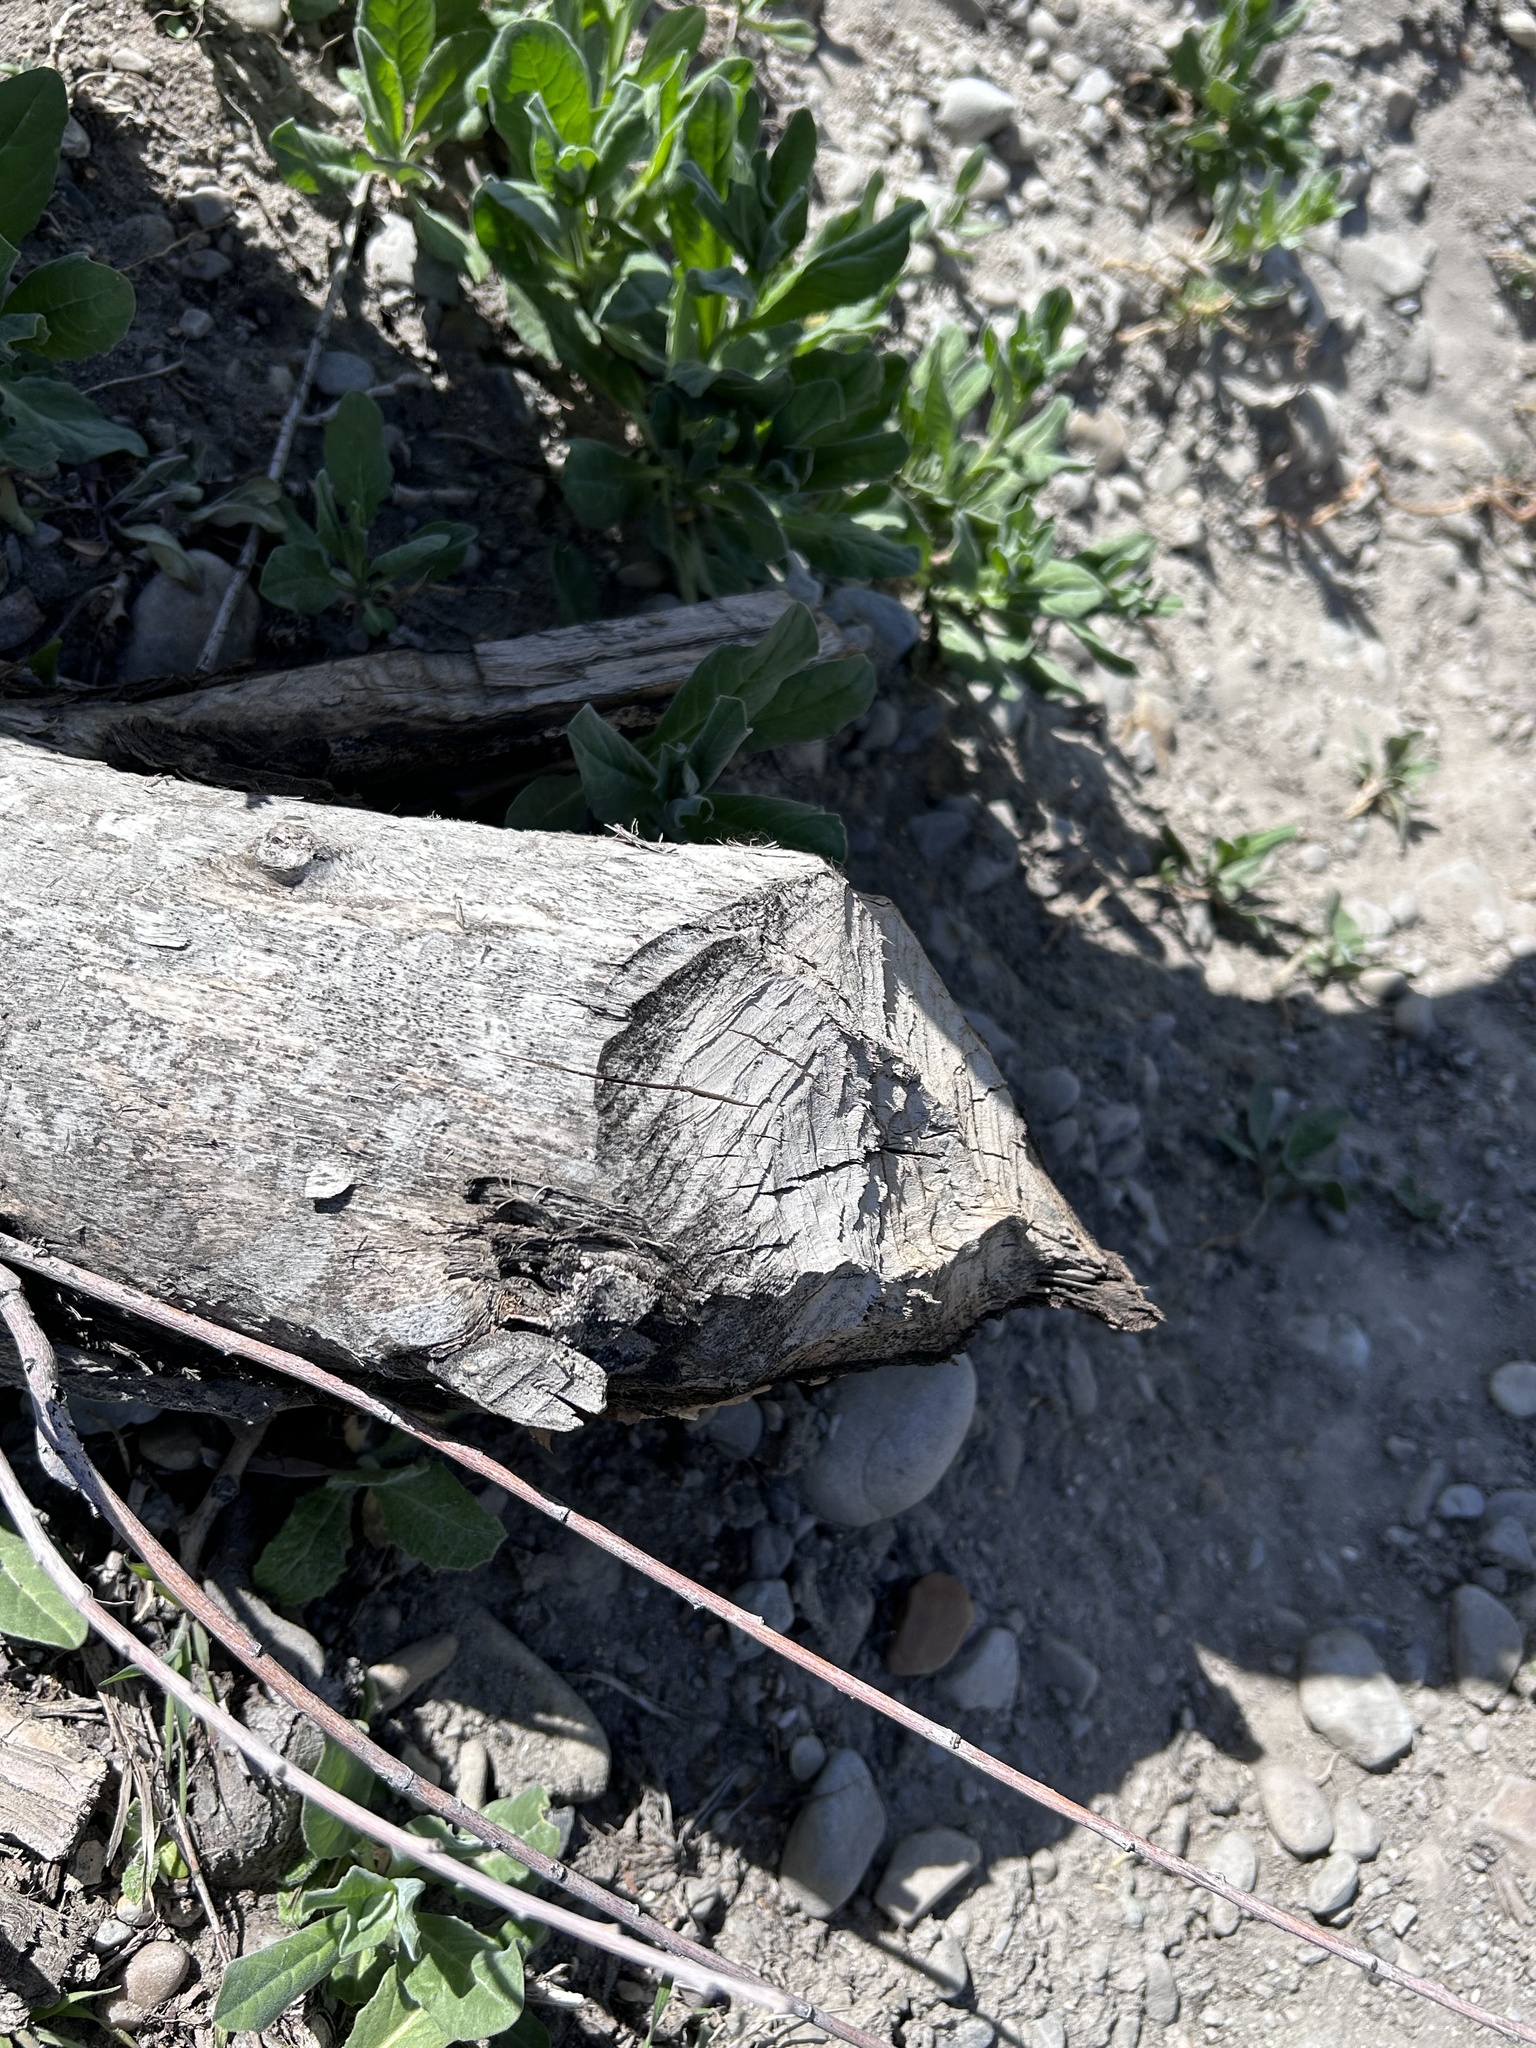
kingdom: Animalia
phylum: Chordata
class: Mammalia
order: Rodentia
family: Castoridae
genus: Castor
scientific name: Castor canadensis
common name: American beaver
